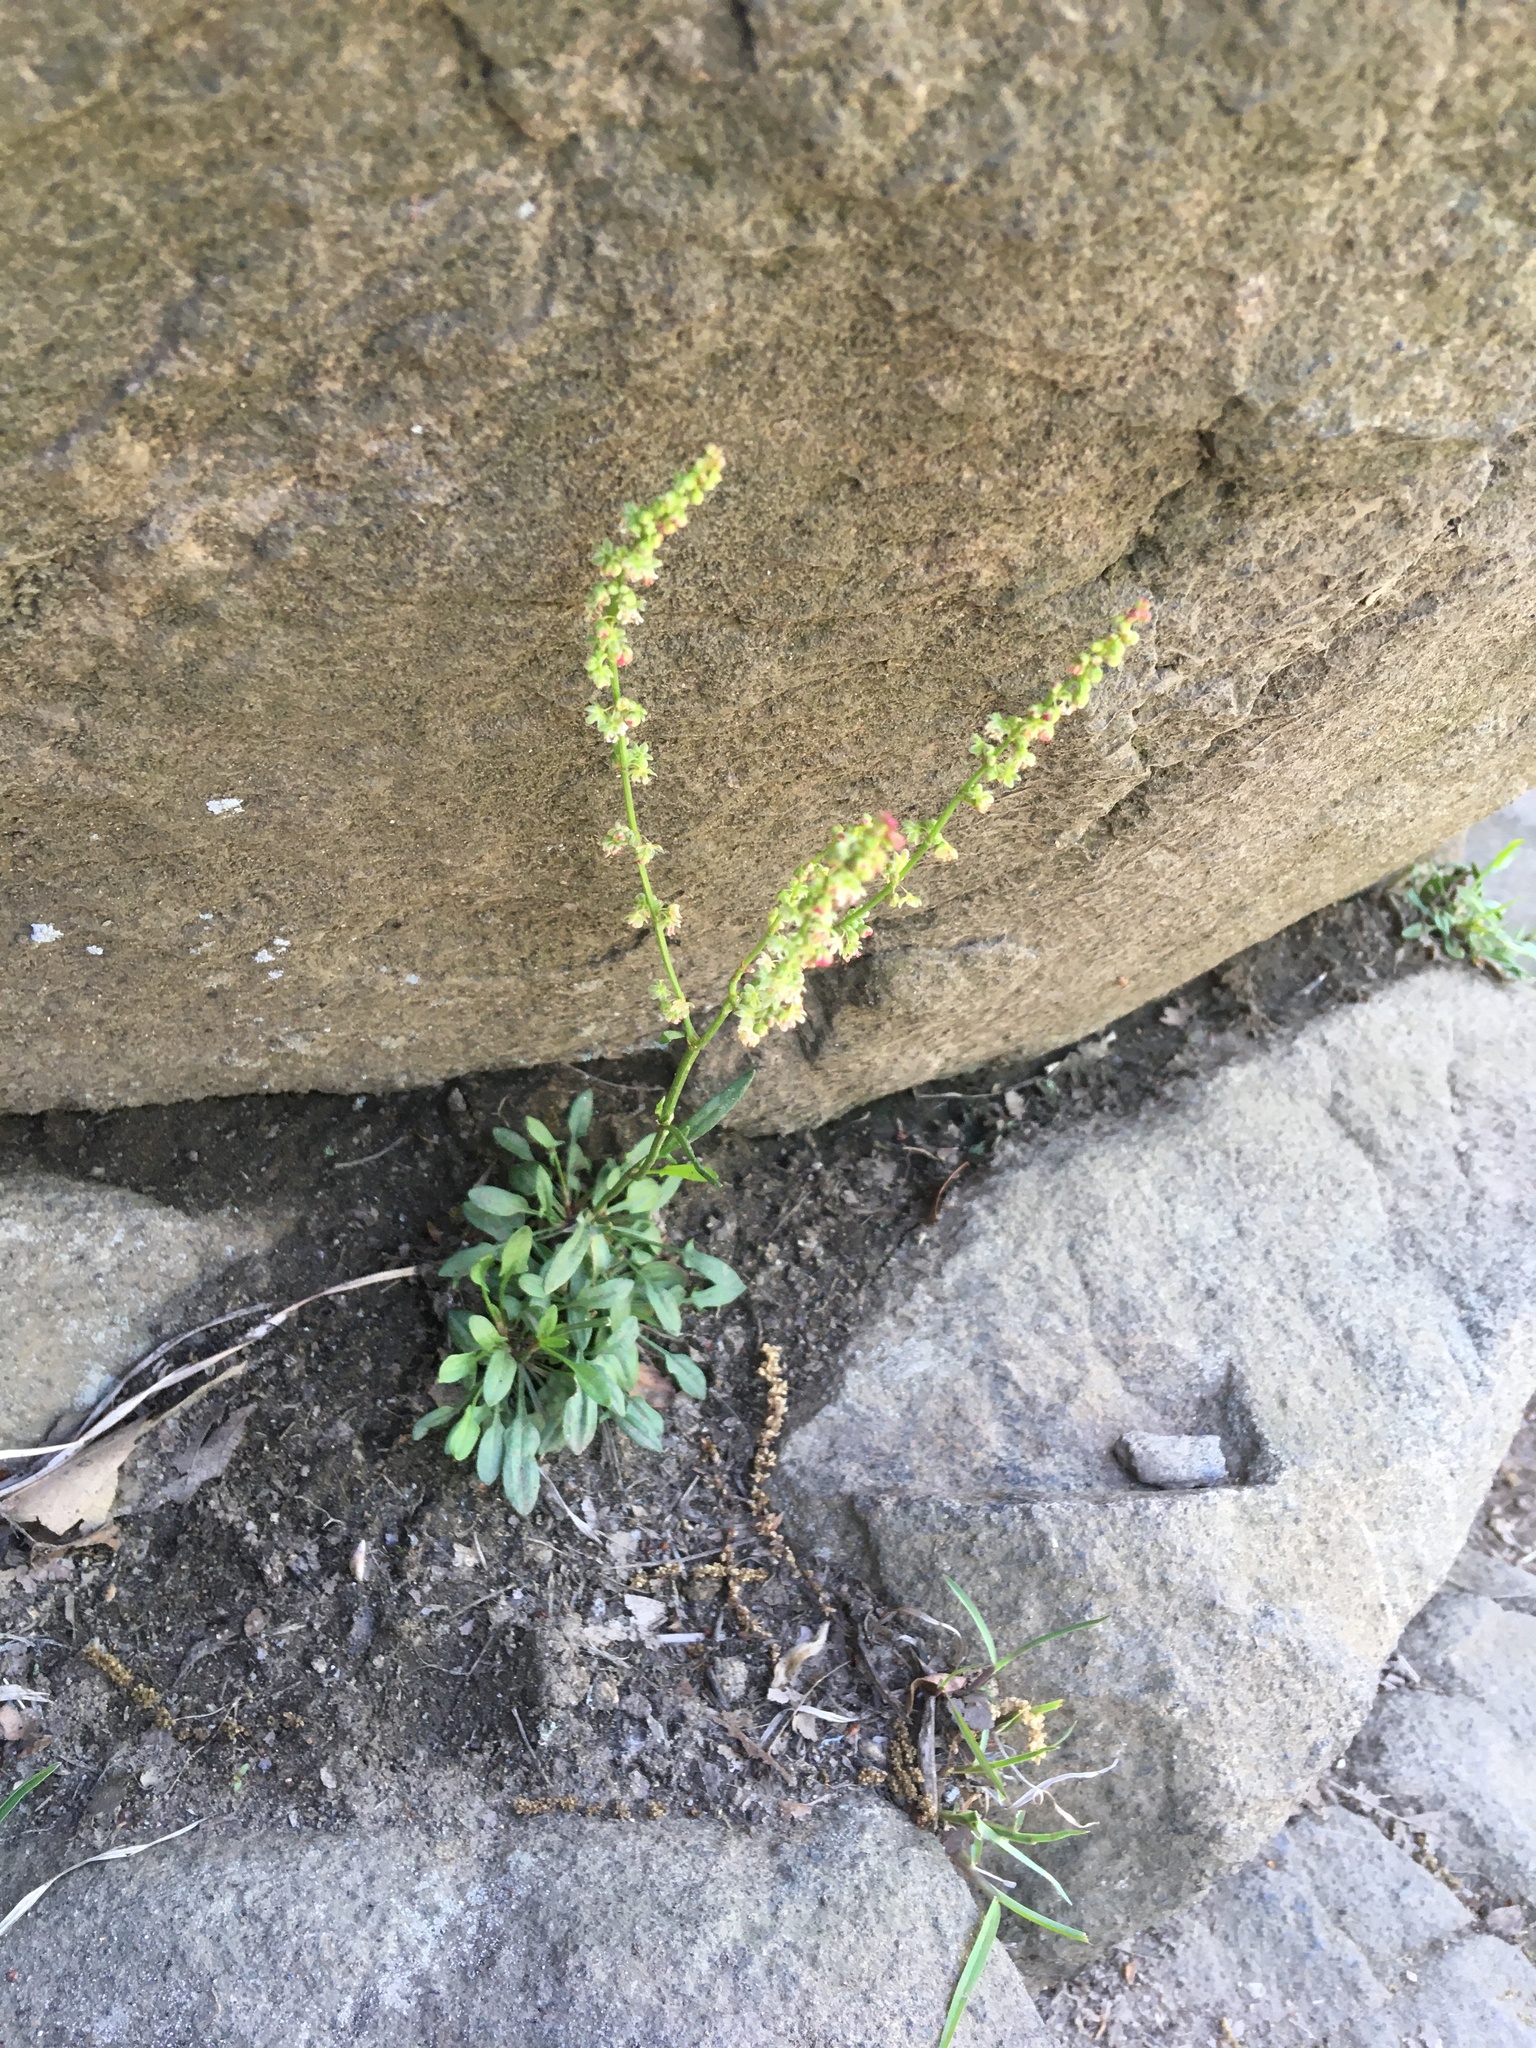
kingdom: Plantae
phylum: Tracheophyta
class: Magnoliopsida
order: Caryophyllales
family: Polygonaceae
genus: Rumex
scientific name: Rumex acetosella
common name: Common sheep sorrel
